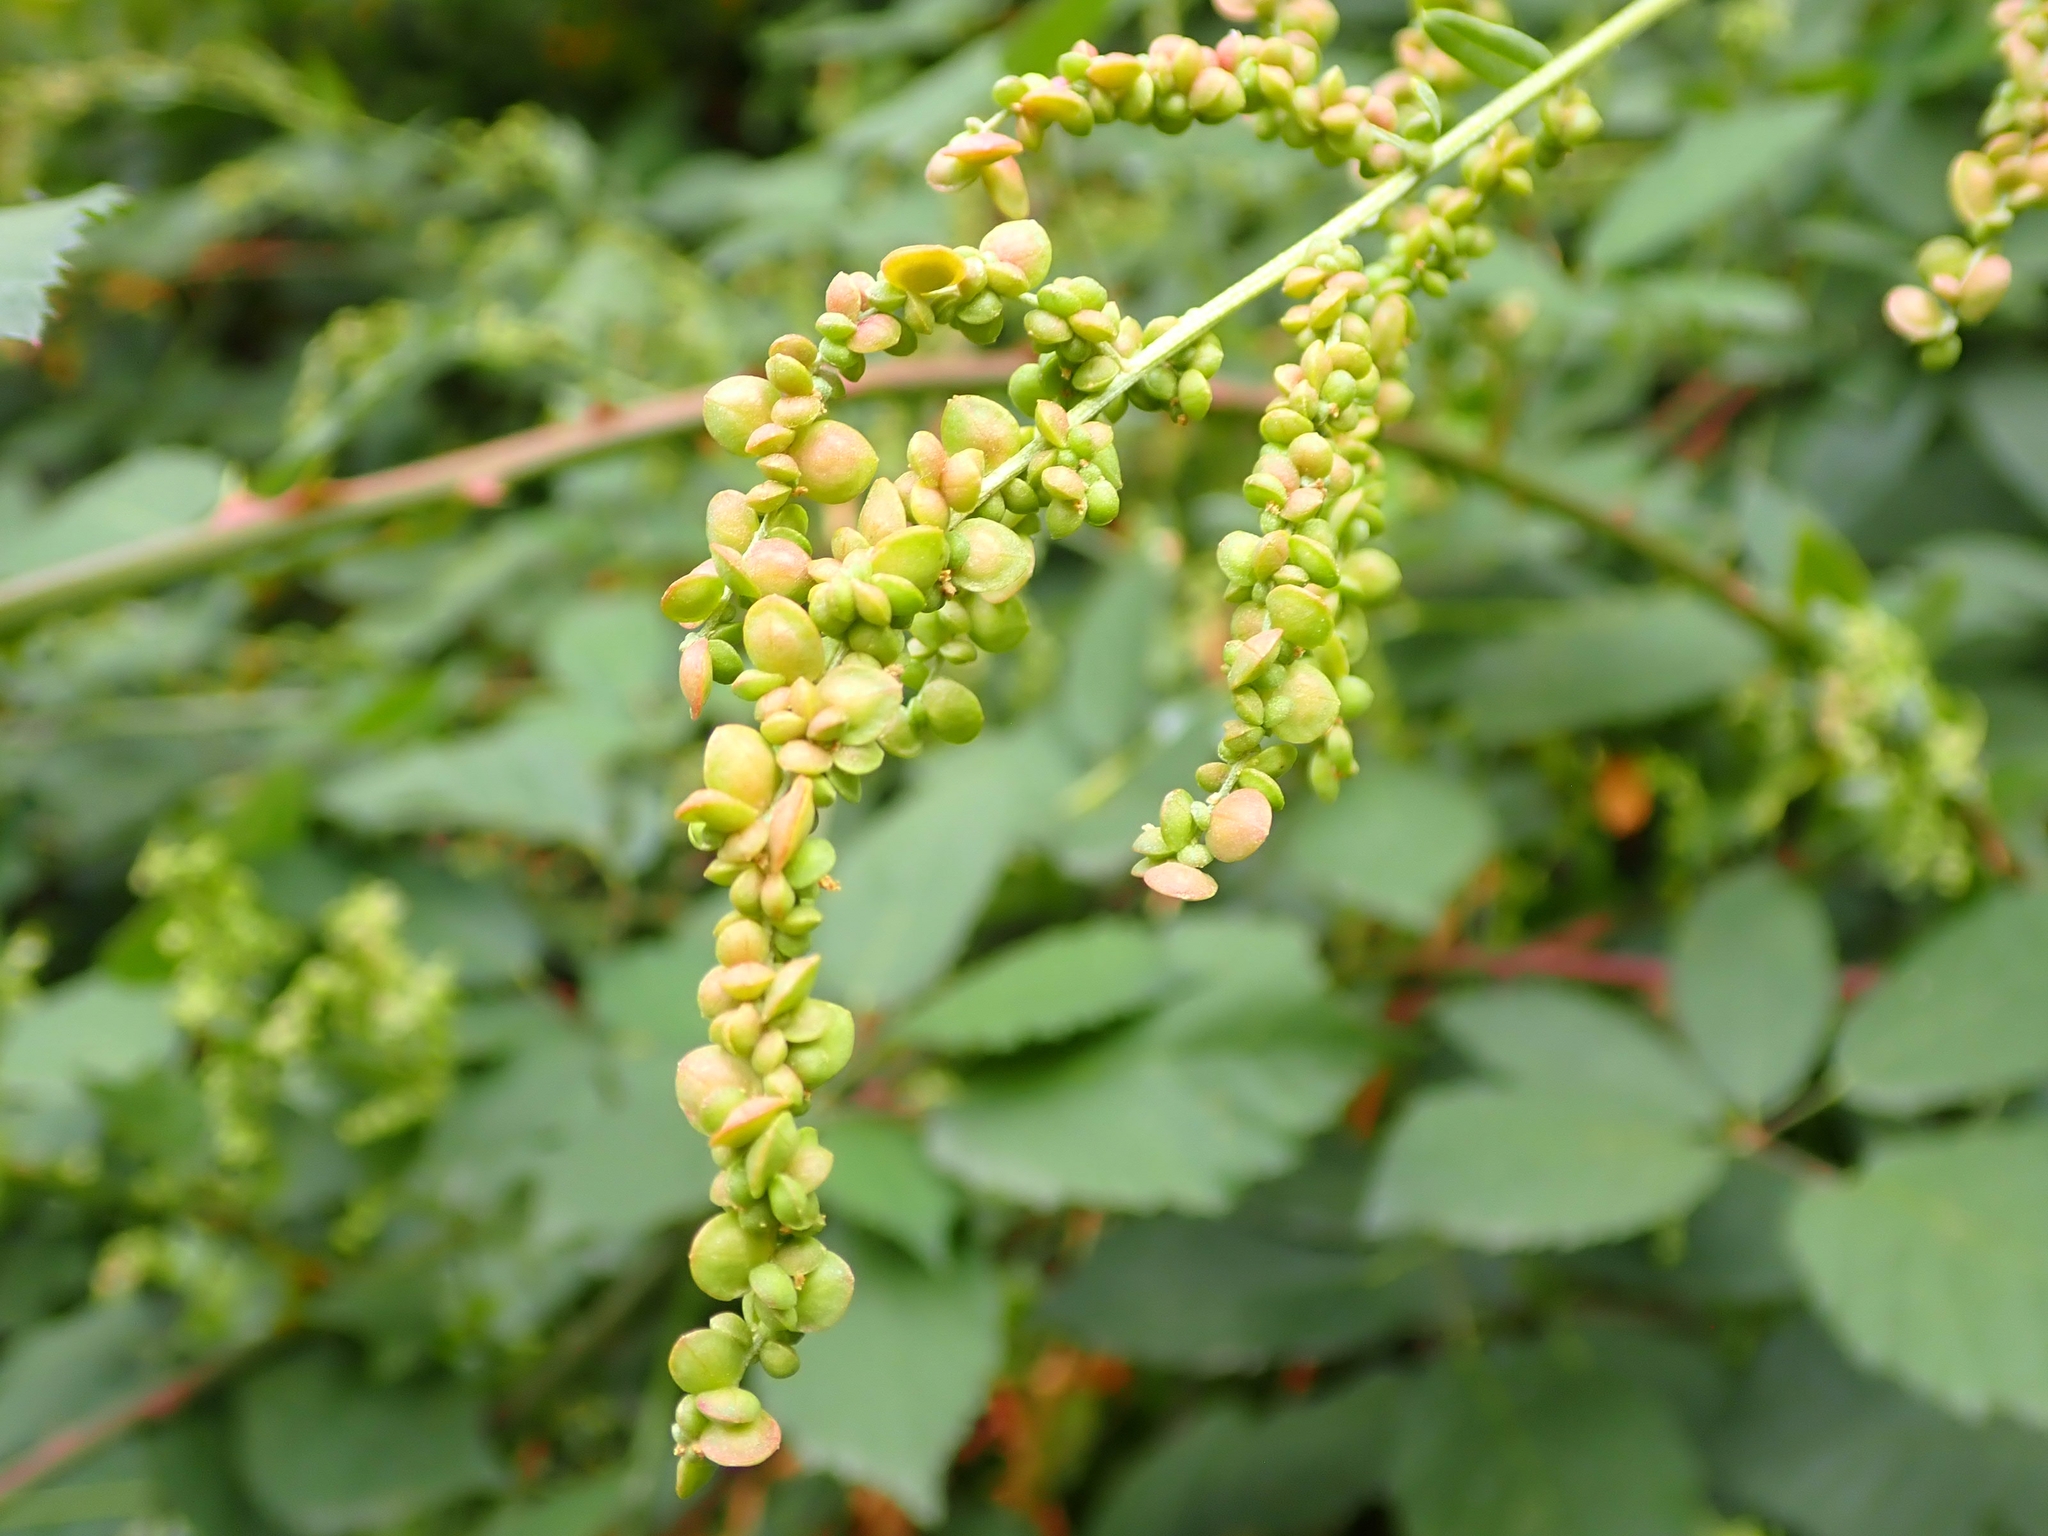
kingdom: Plantae
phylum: Tracheophyta
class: Magnoliopsida
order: Caryophyllales
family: Amaranthaceae
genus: Atriplex
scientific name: Atriplex micrantha
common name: Twoscale saltbush
